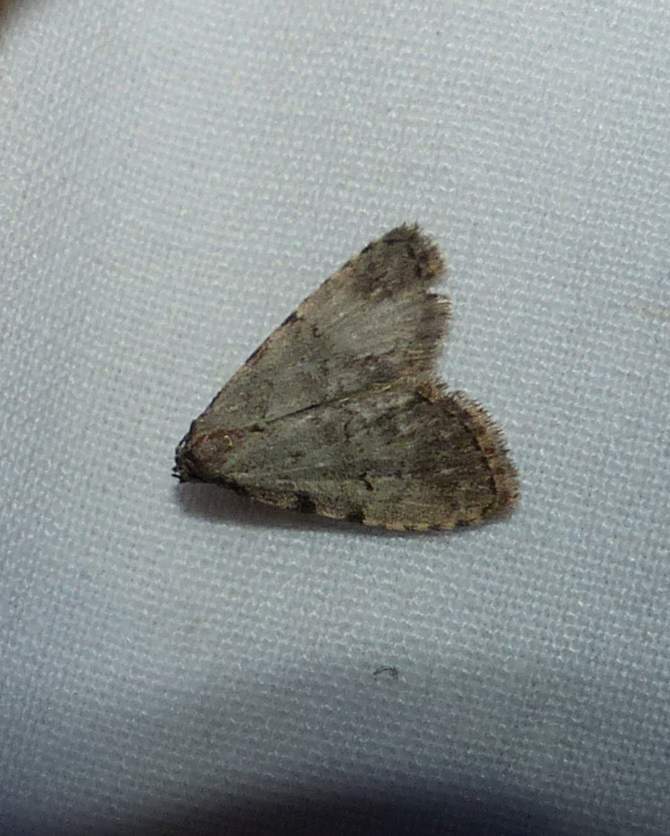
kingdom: Animalia
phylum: Arthropoda
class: Insecta
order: Lepidoptera
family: Erebidae
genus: Dyspyralis
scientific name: Dyspyralis puncticosta
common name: Spot-edged dyspyralis moth
